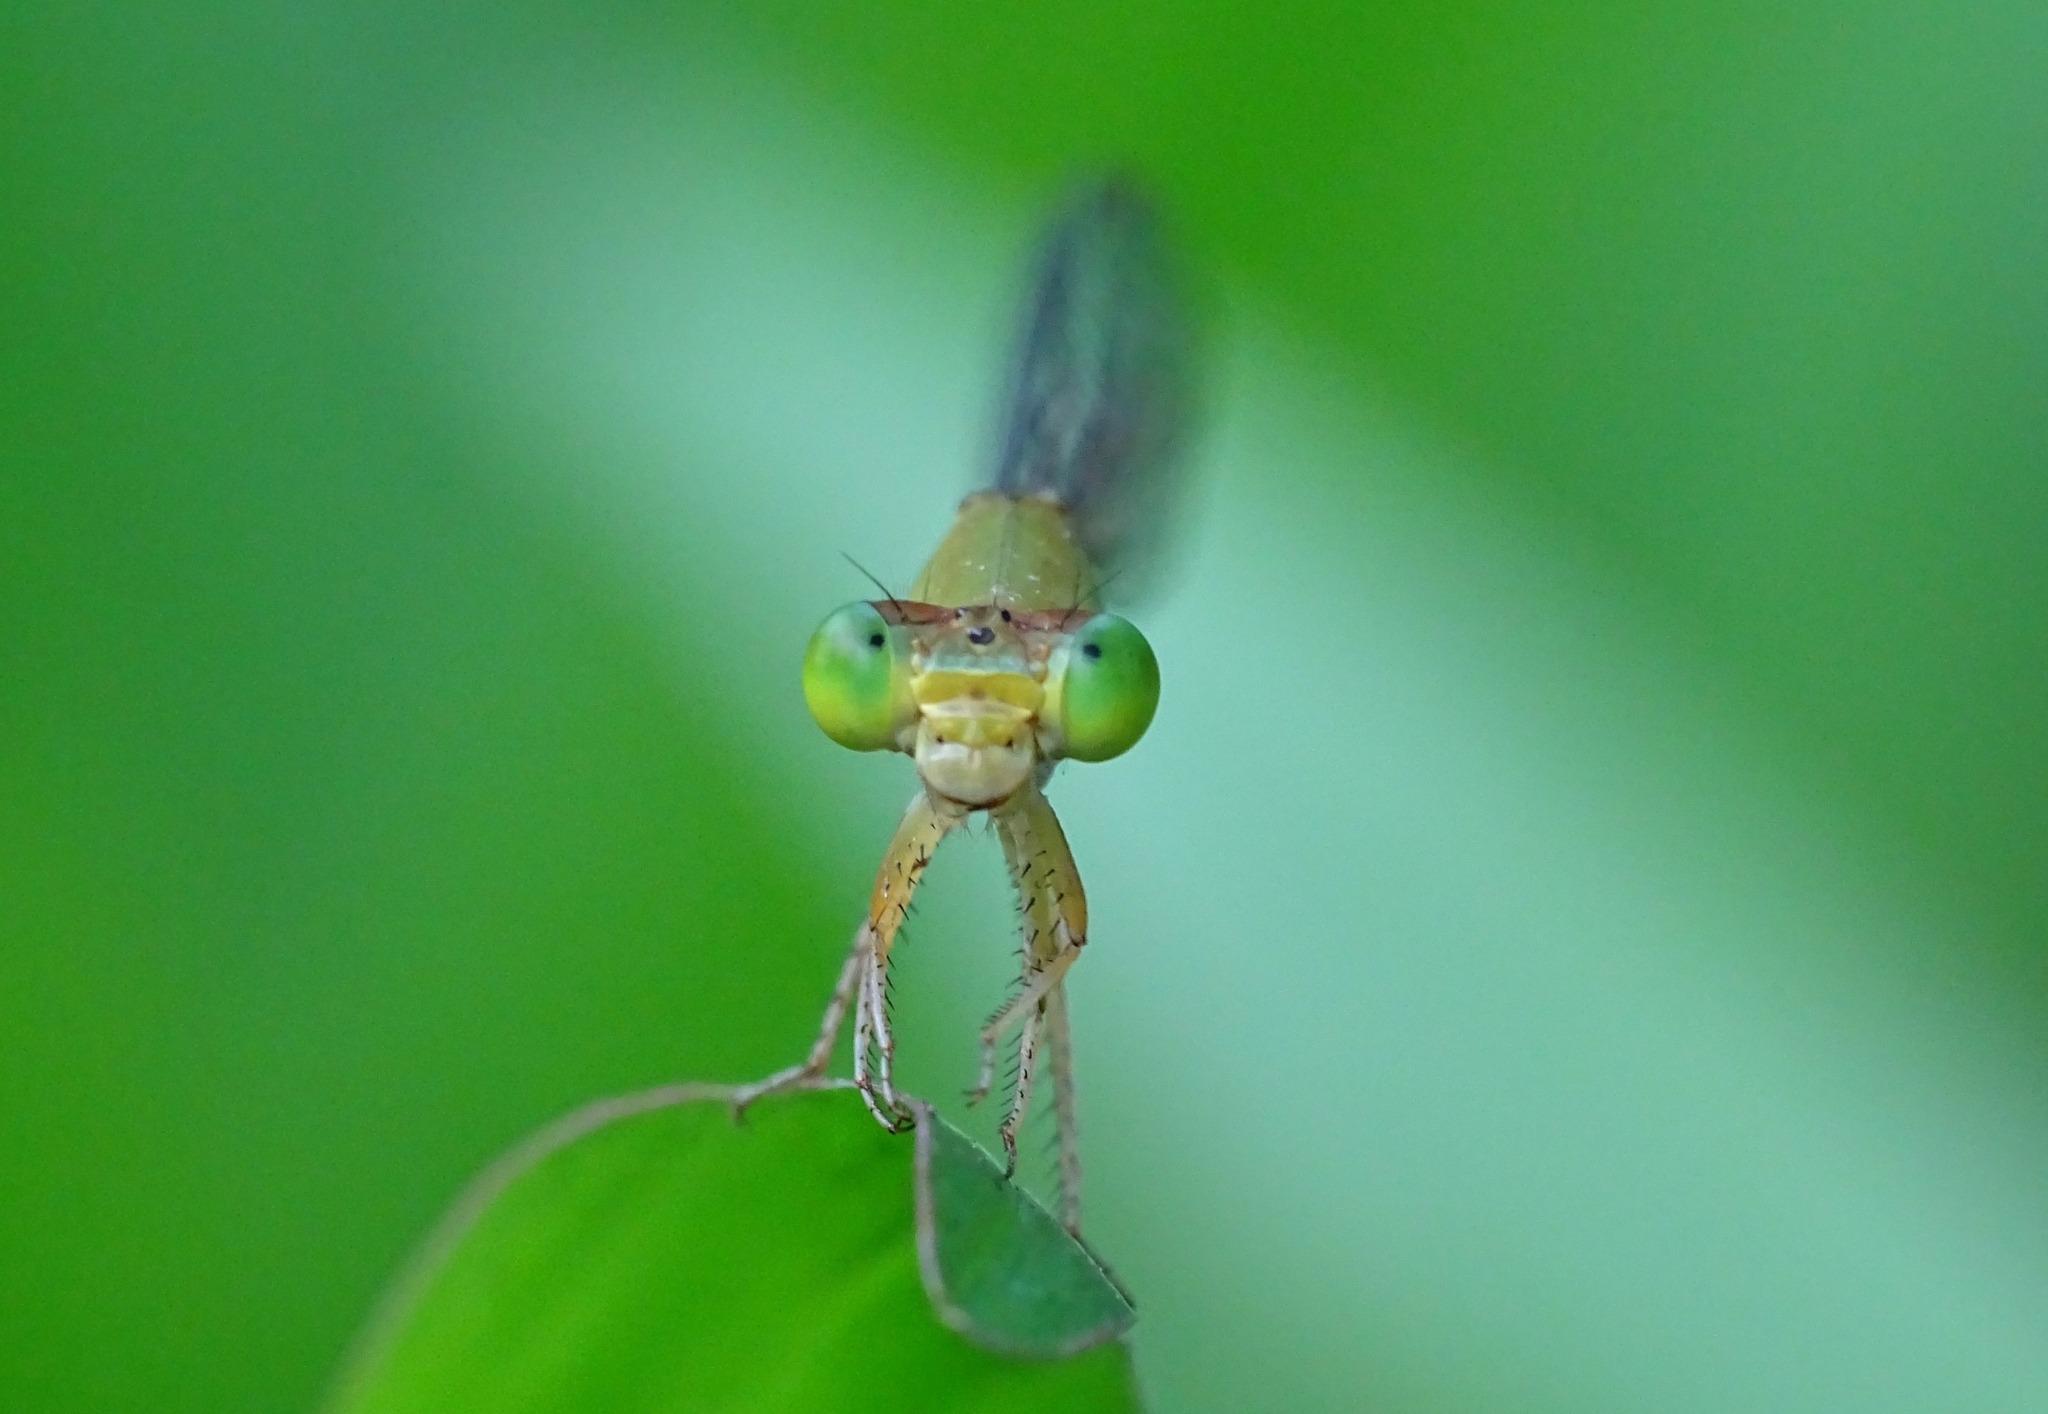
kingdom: Animalia
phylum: Arthropoda
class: Insecta
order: Odonata
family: Coenagrionidae
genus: Ceriagrion
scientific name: Ceriagrion coromandelianum
